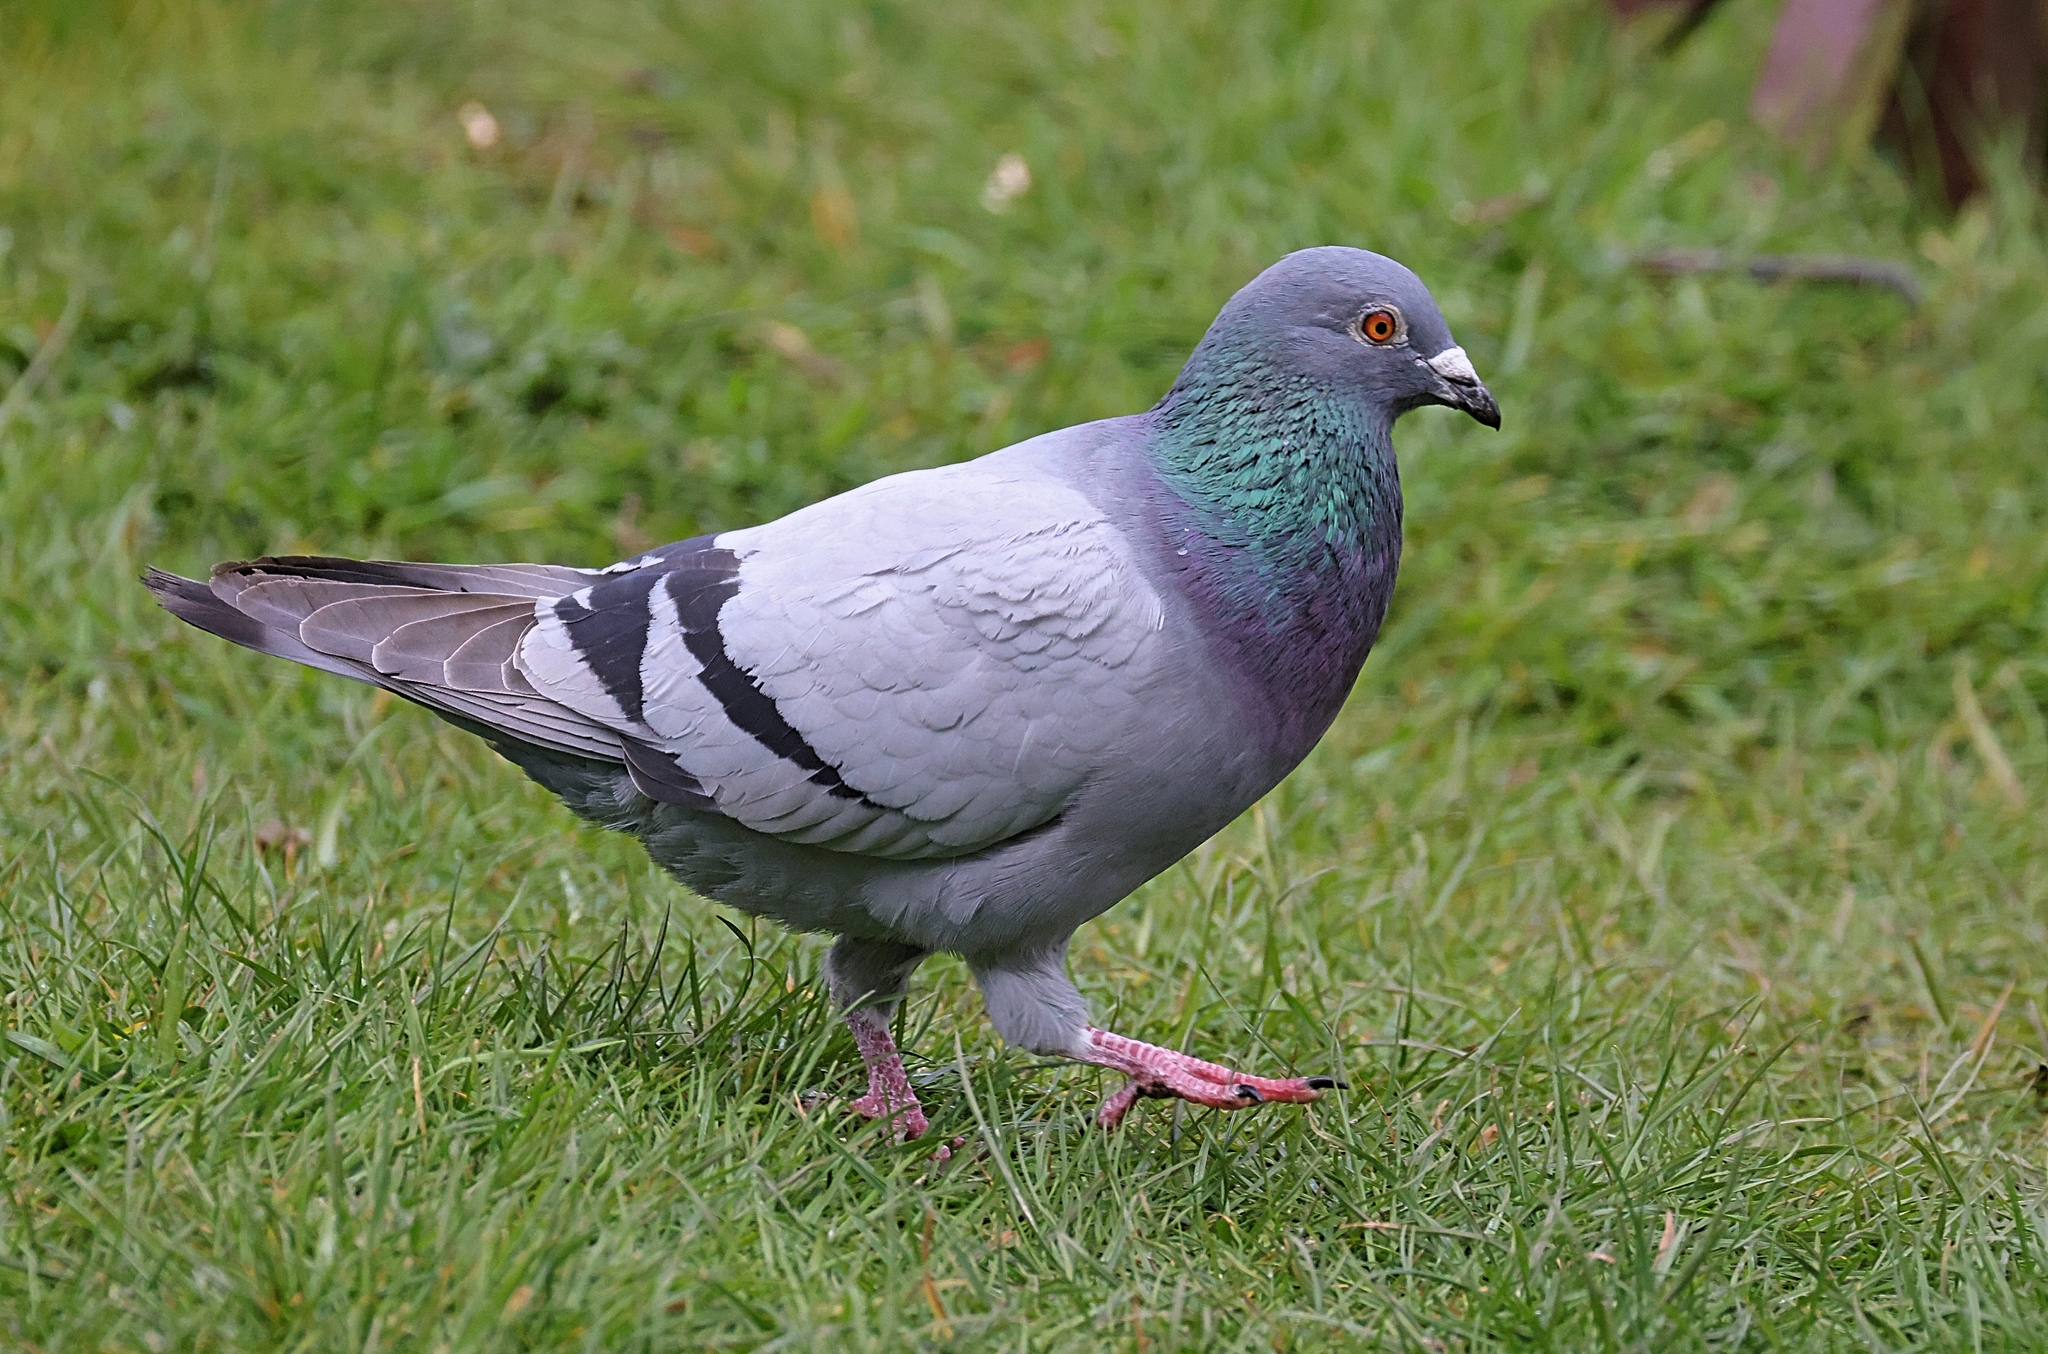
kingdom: Animalia
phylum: Chordata
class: Aves
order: Columbiformes
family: Columbidae
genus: Columba
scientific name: Columba livia
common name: Rock pigeon
